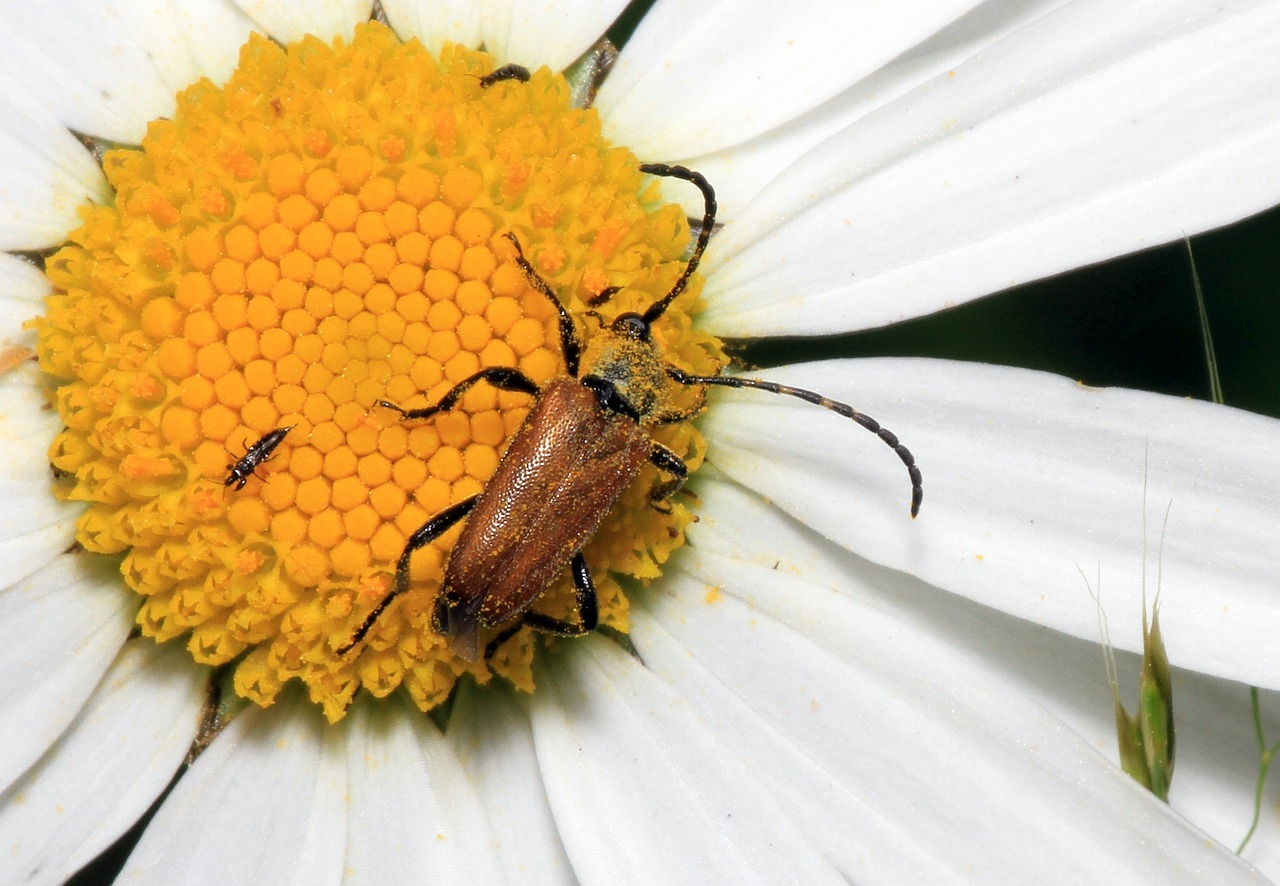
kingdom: Animalia
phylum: Arthropoda
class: Insecta
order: Coleoptera
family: Cerambycidae
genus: Paracorymbia
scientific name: Paracorymbia maculicornis
